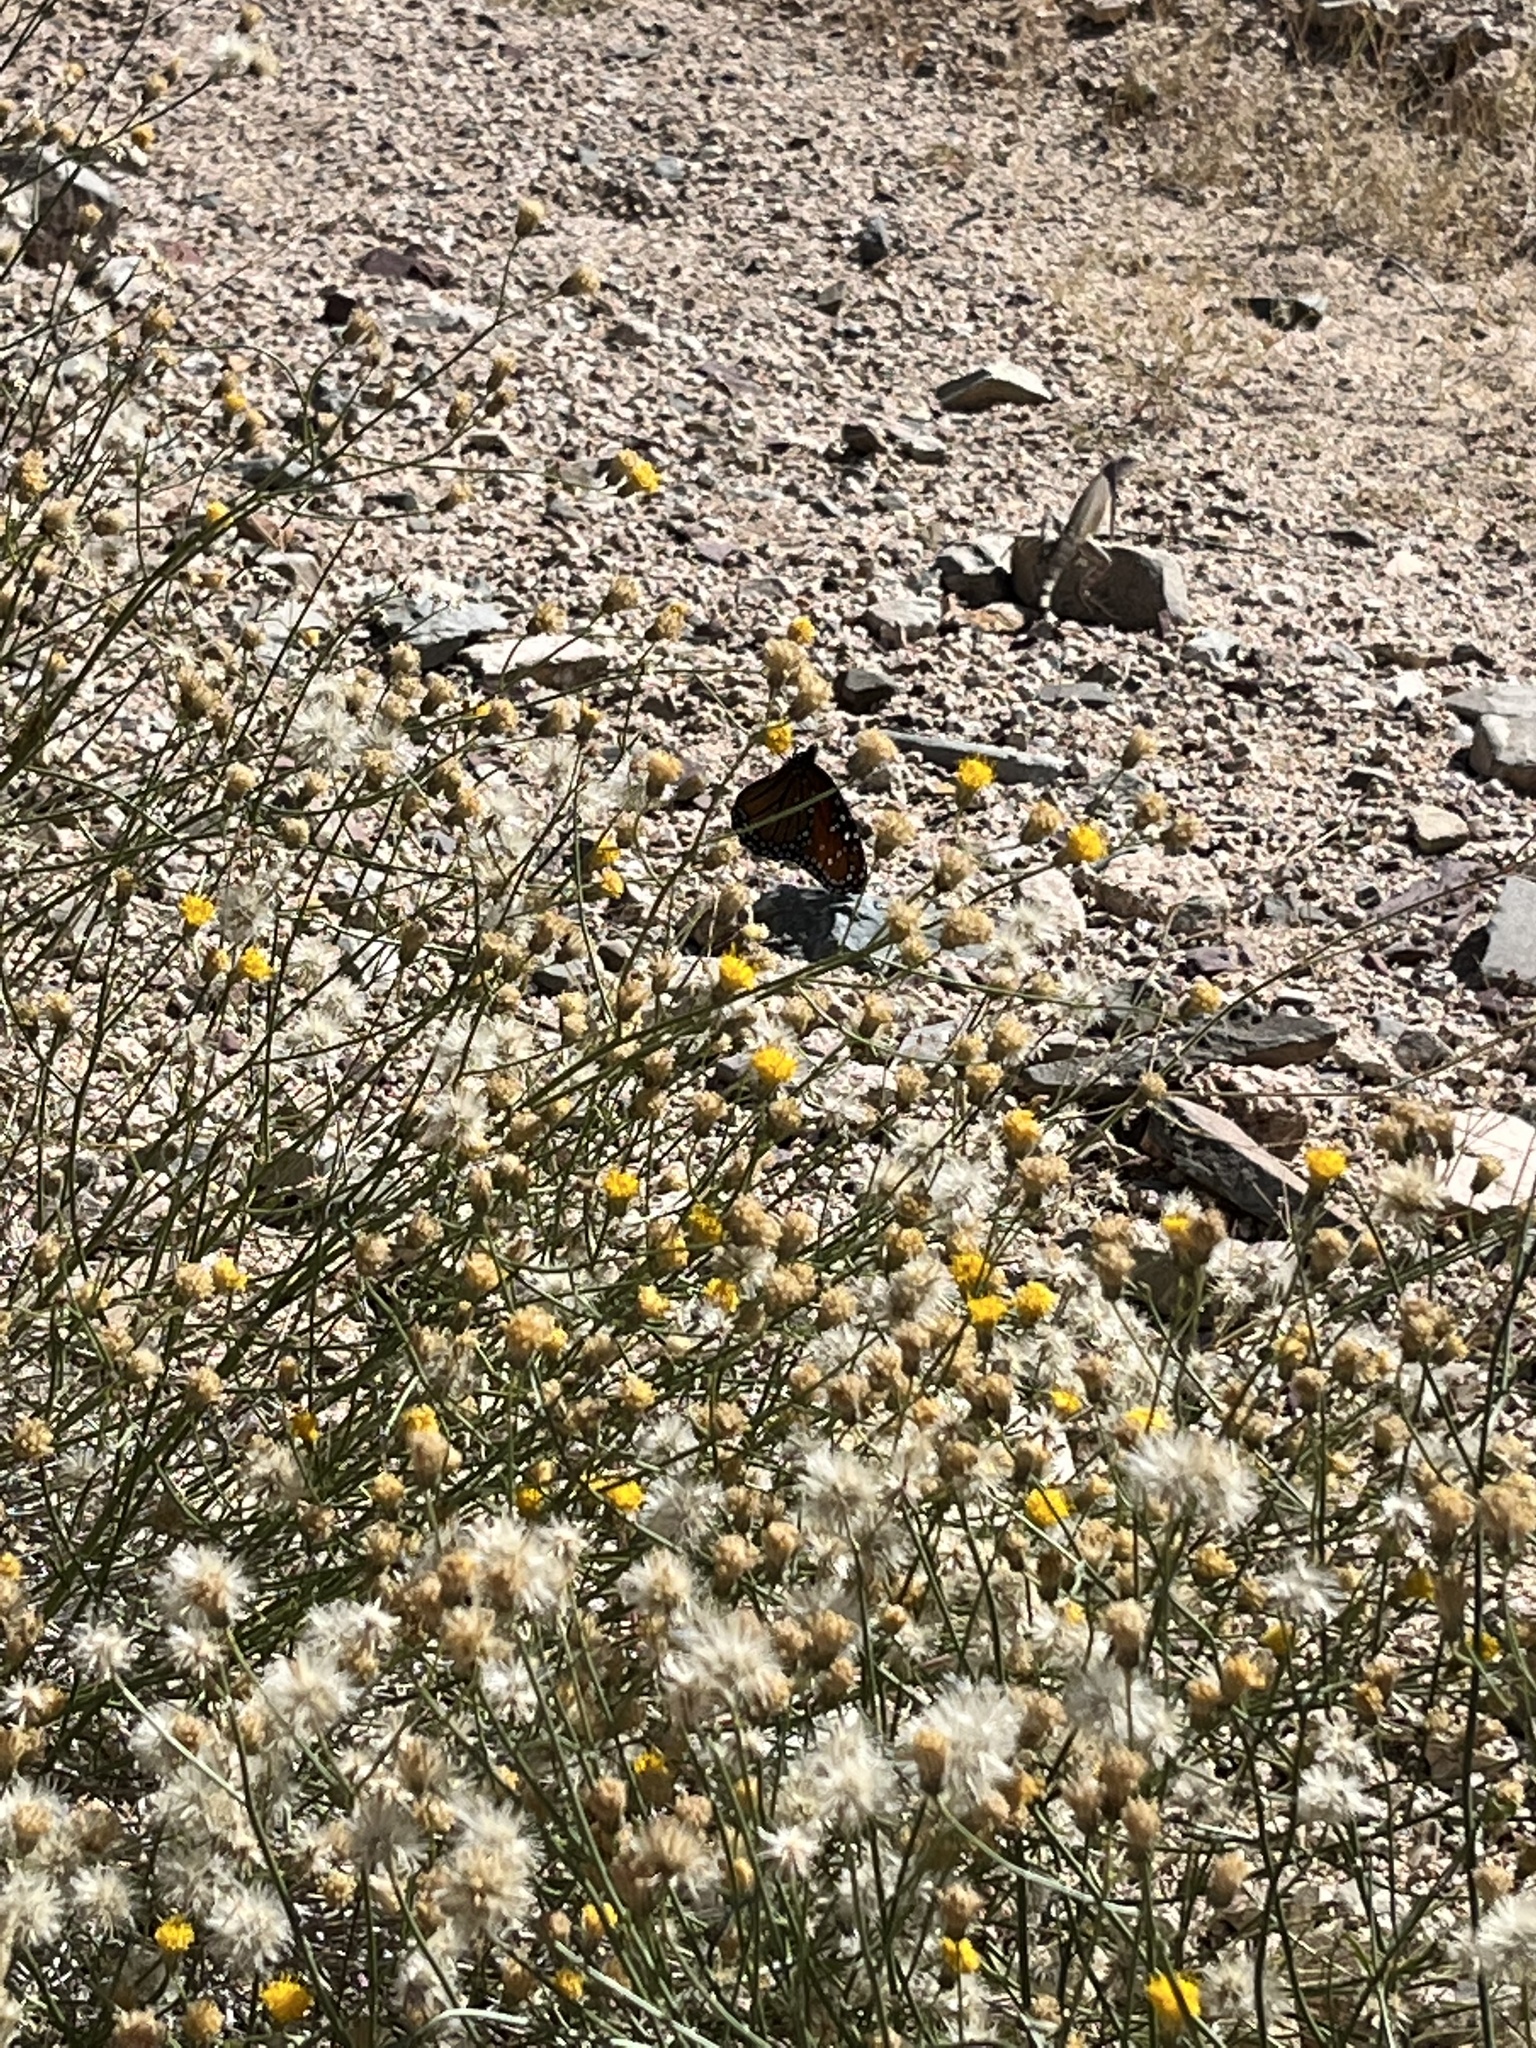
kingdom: Animalia
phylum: Arthropoda
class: Insecta
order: Lepidoptera
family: Nymphalidae
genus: Danaus
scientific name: Danaus gilippus
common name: Queen
